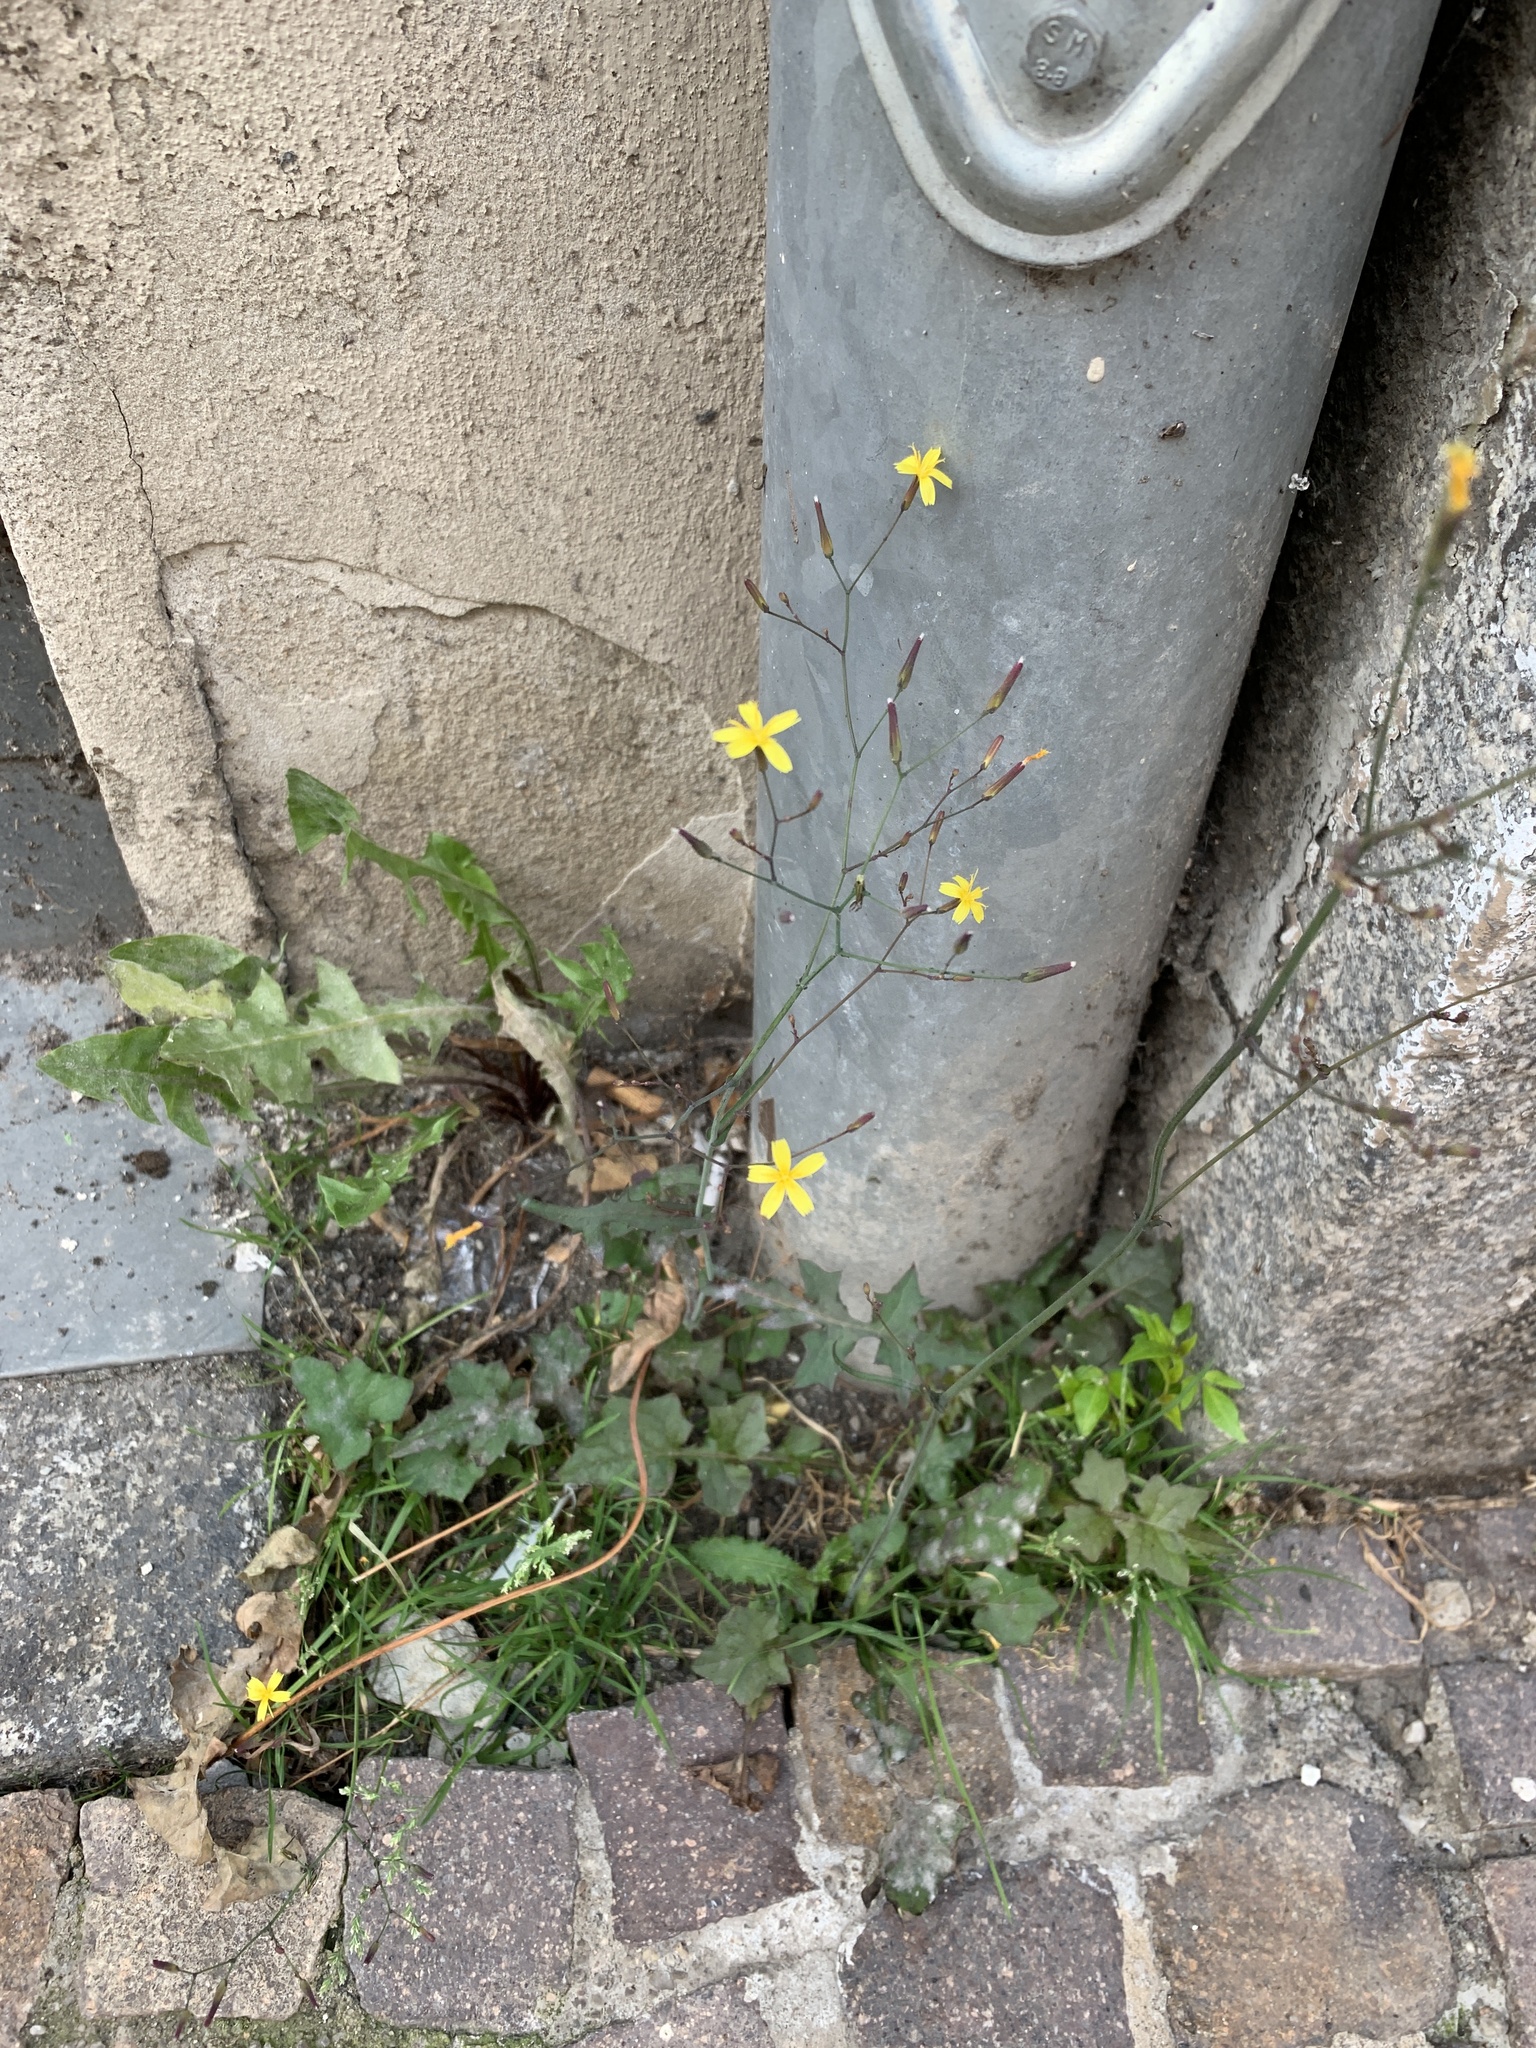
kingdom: Plantae
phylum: Tracheophyta
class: Magnoliopsida
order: Asterales
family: Asteraceae
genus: Mycelis
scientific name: Mycelis muralis
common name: Wall lettuce
